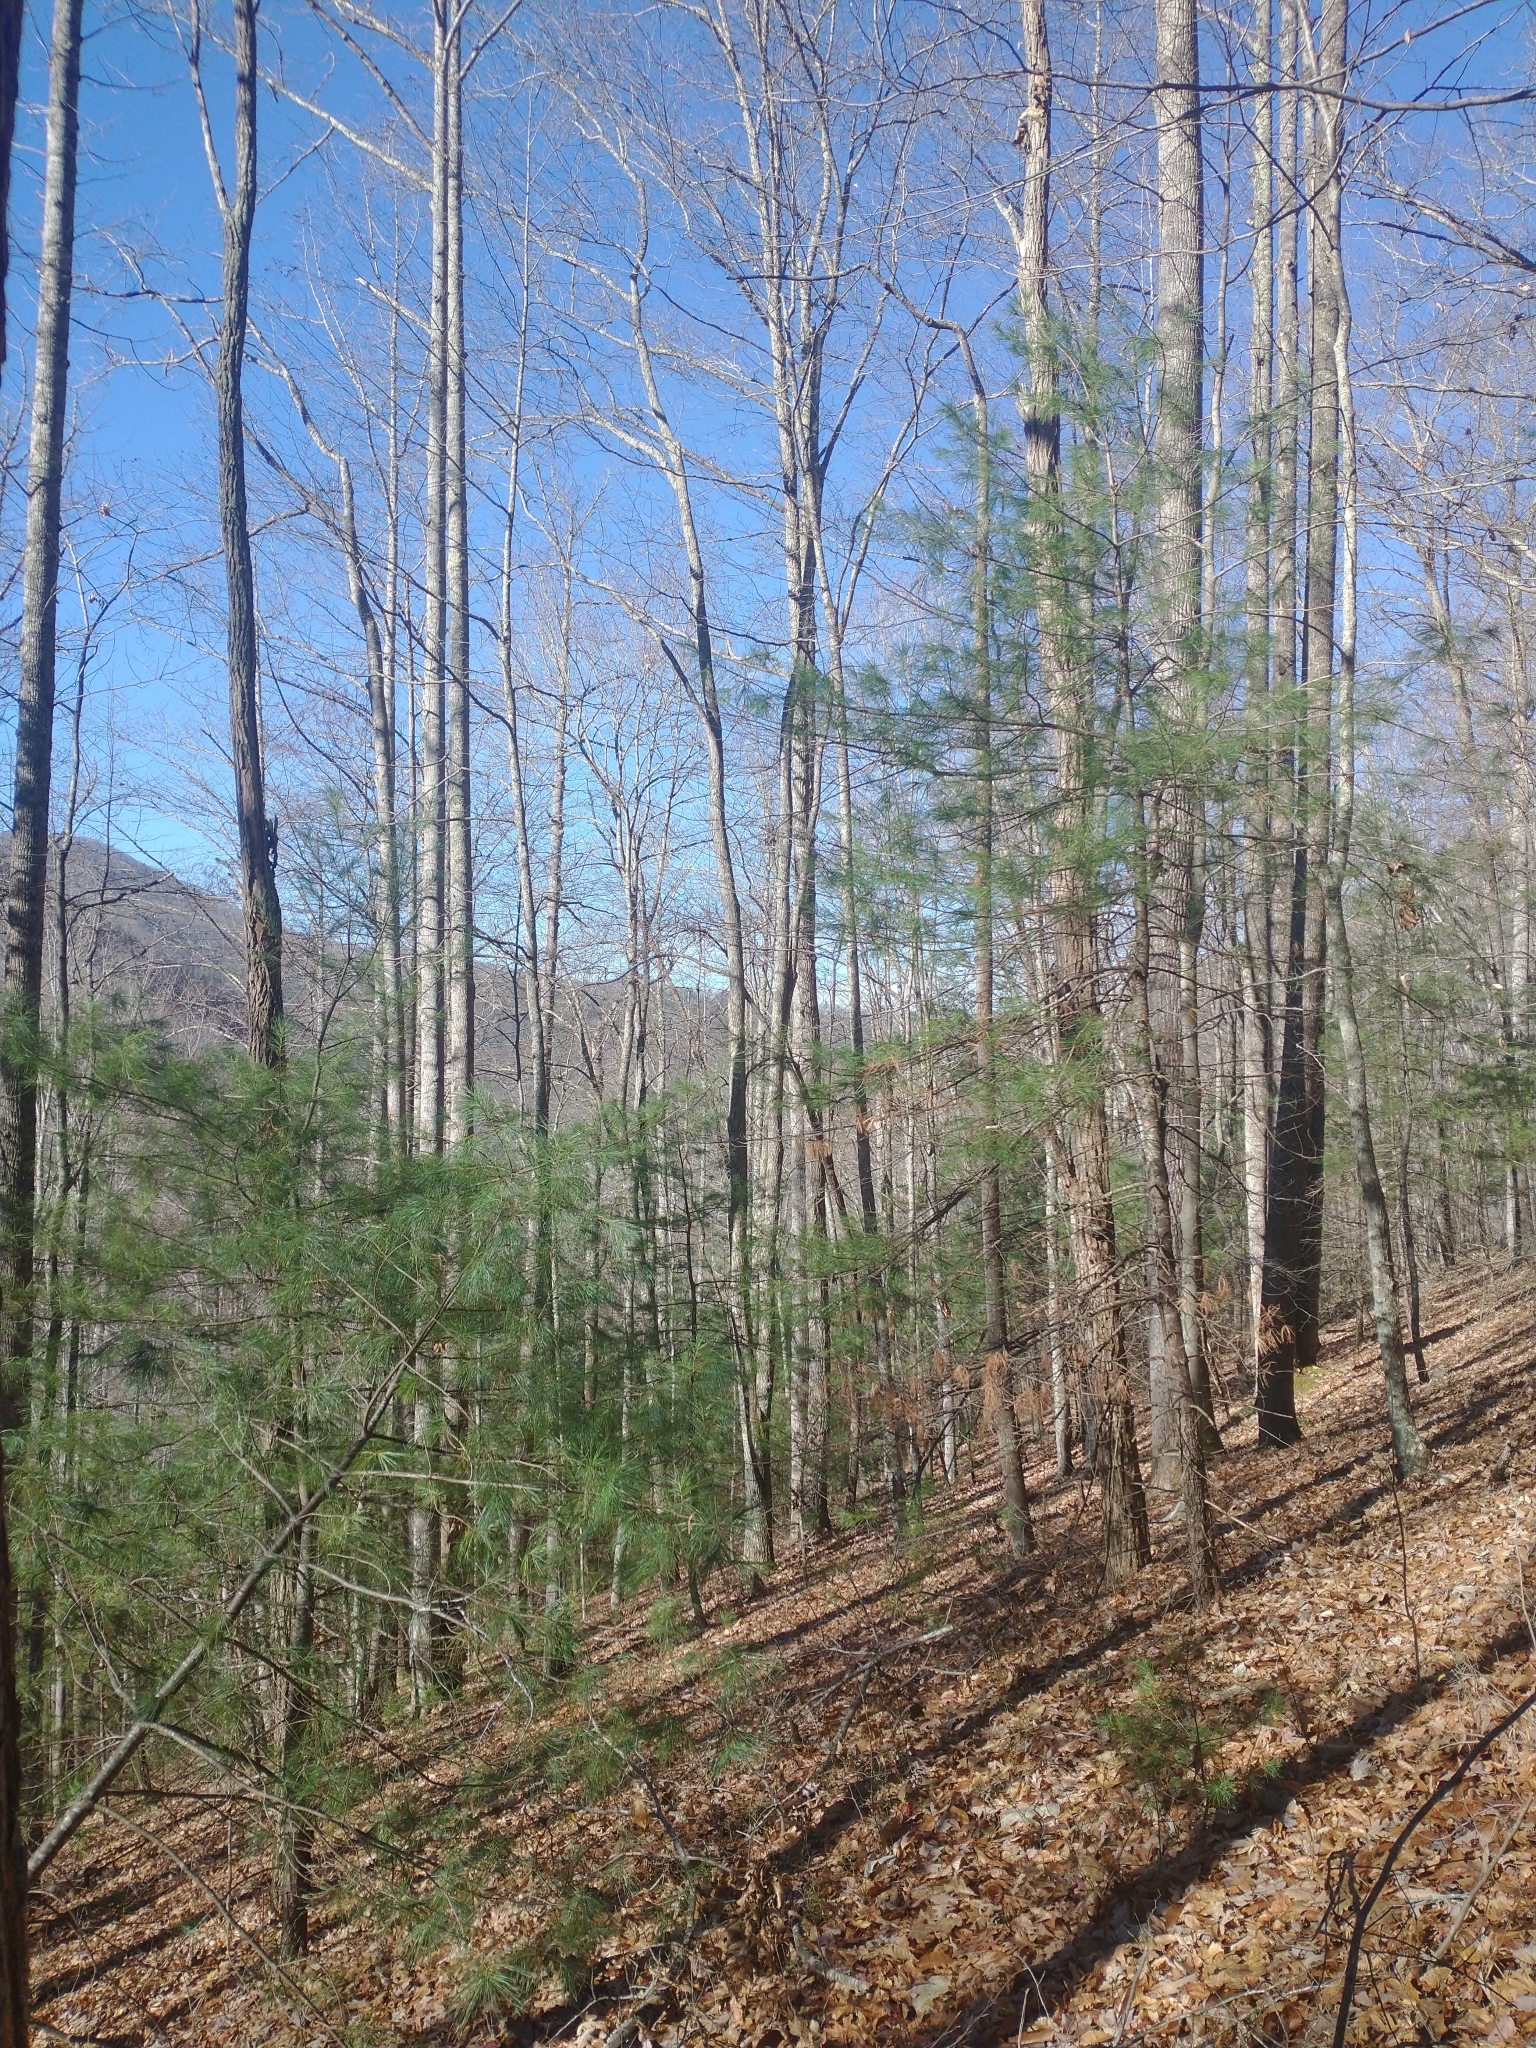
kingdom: Plantae
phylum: Tracheophyta
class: Pinopsida
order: Pinales
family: Pinaceae
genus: Pinus
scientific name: Pinus strobus
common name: Weymouth pine
